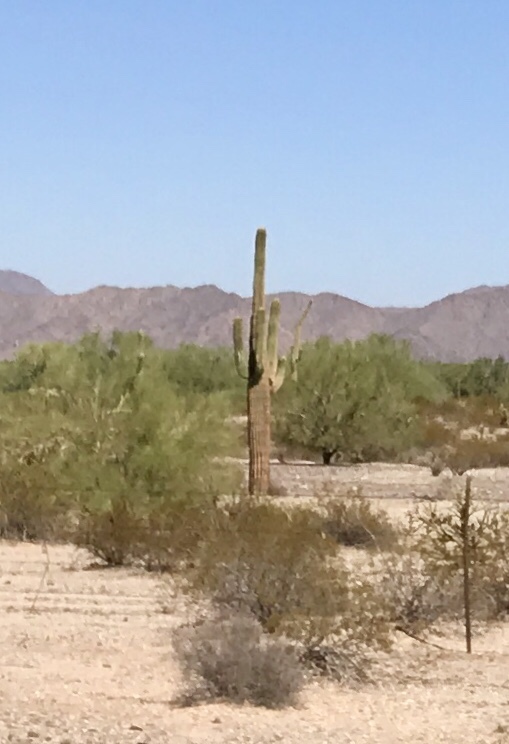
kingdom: Plantae
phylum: Tracheophyta
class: Magnoliopsida
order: Caryophyllales
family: Cactaceae
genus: Carnegiea
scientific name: Carnegiea gigantea
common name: Saguaro
